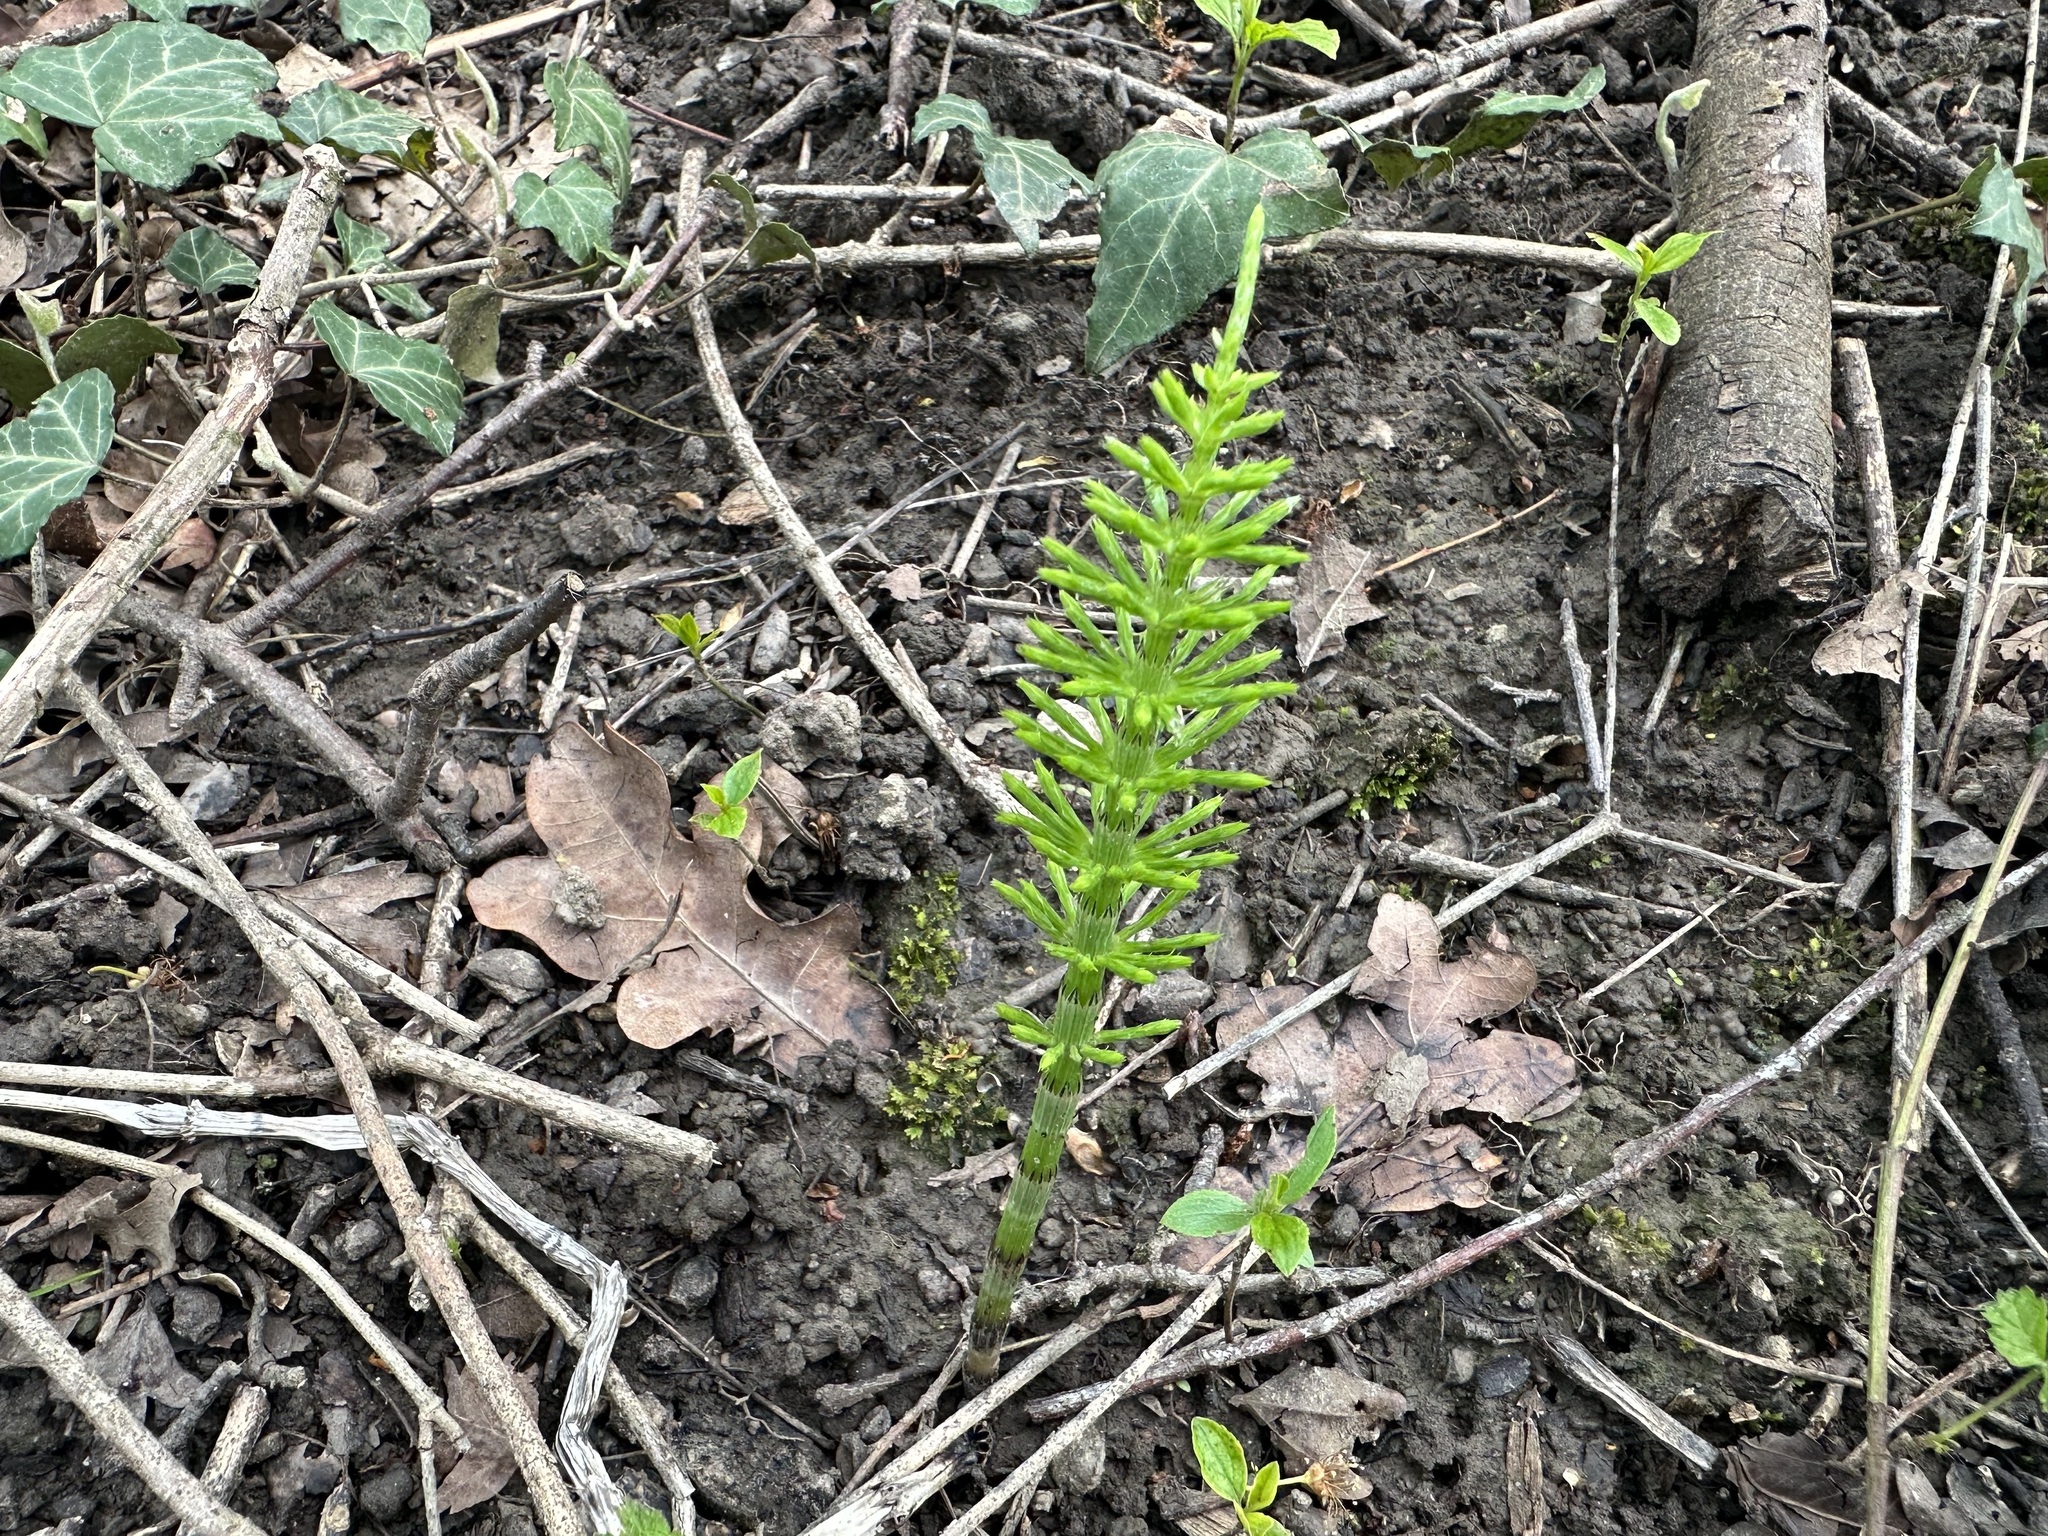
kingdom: Plantae
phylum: Tracheophyta
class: Polypodiopsida
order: Equisetales
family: Equisetaceae
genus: Equisetum
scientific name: Equisetum arvense
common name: Field horsetail
